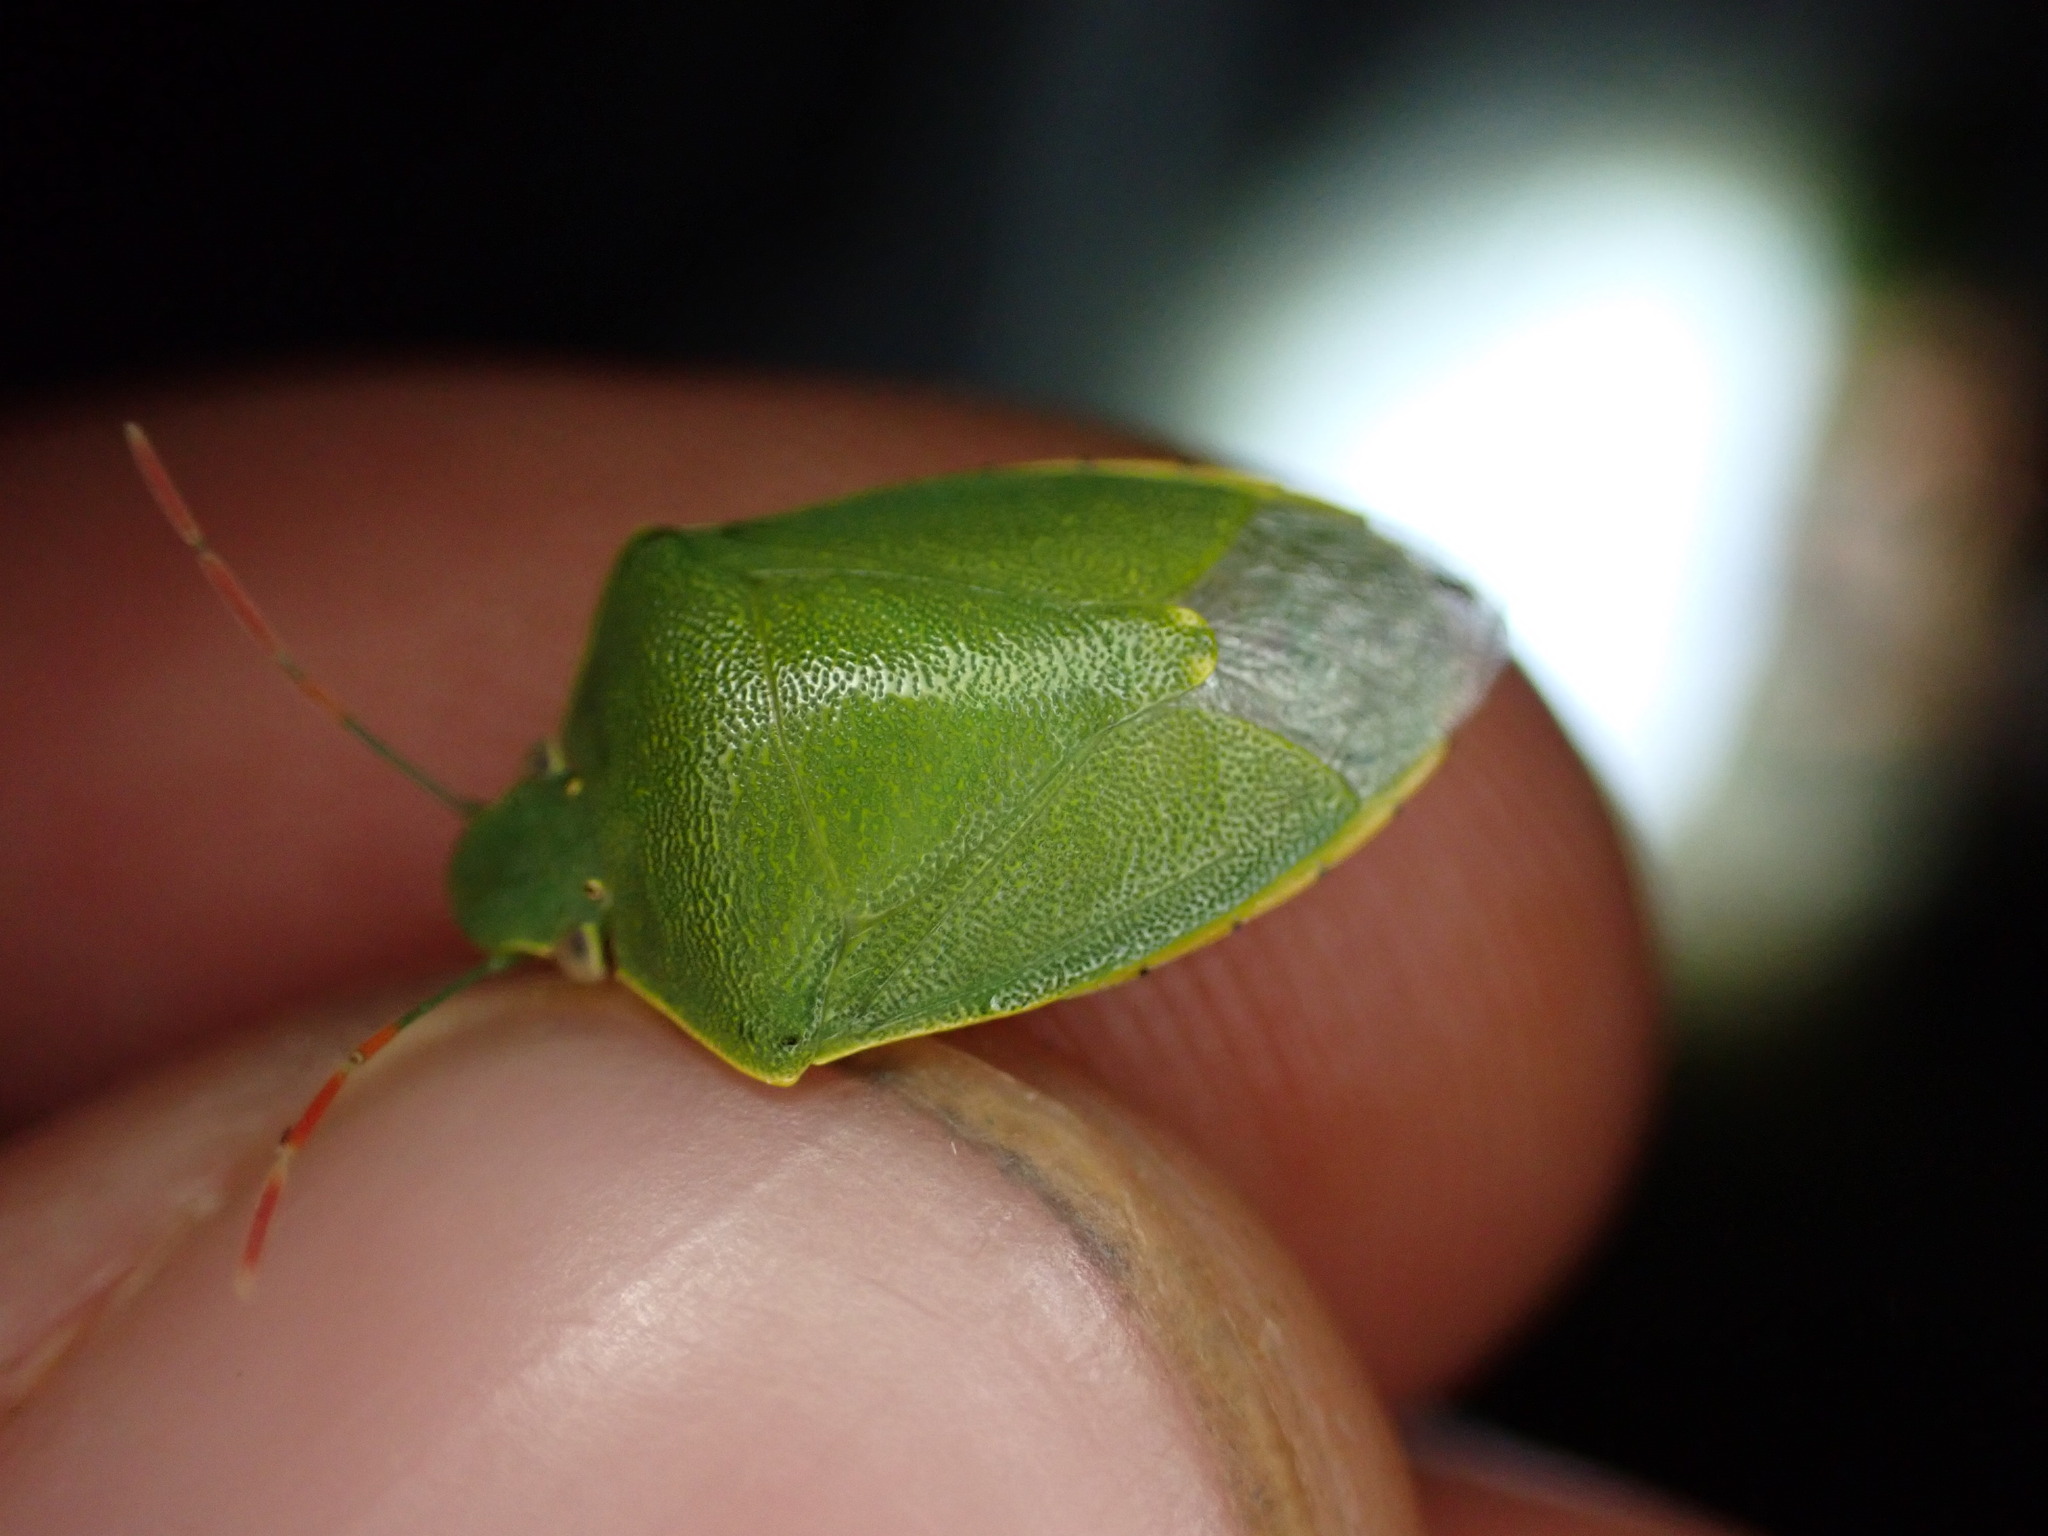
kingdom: Animalia
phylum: Arthropoda
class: Insecta
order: Hemiptera
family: Pentatomidae
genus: Acrosternum
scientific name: Acrosternum heegeri
